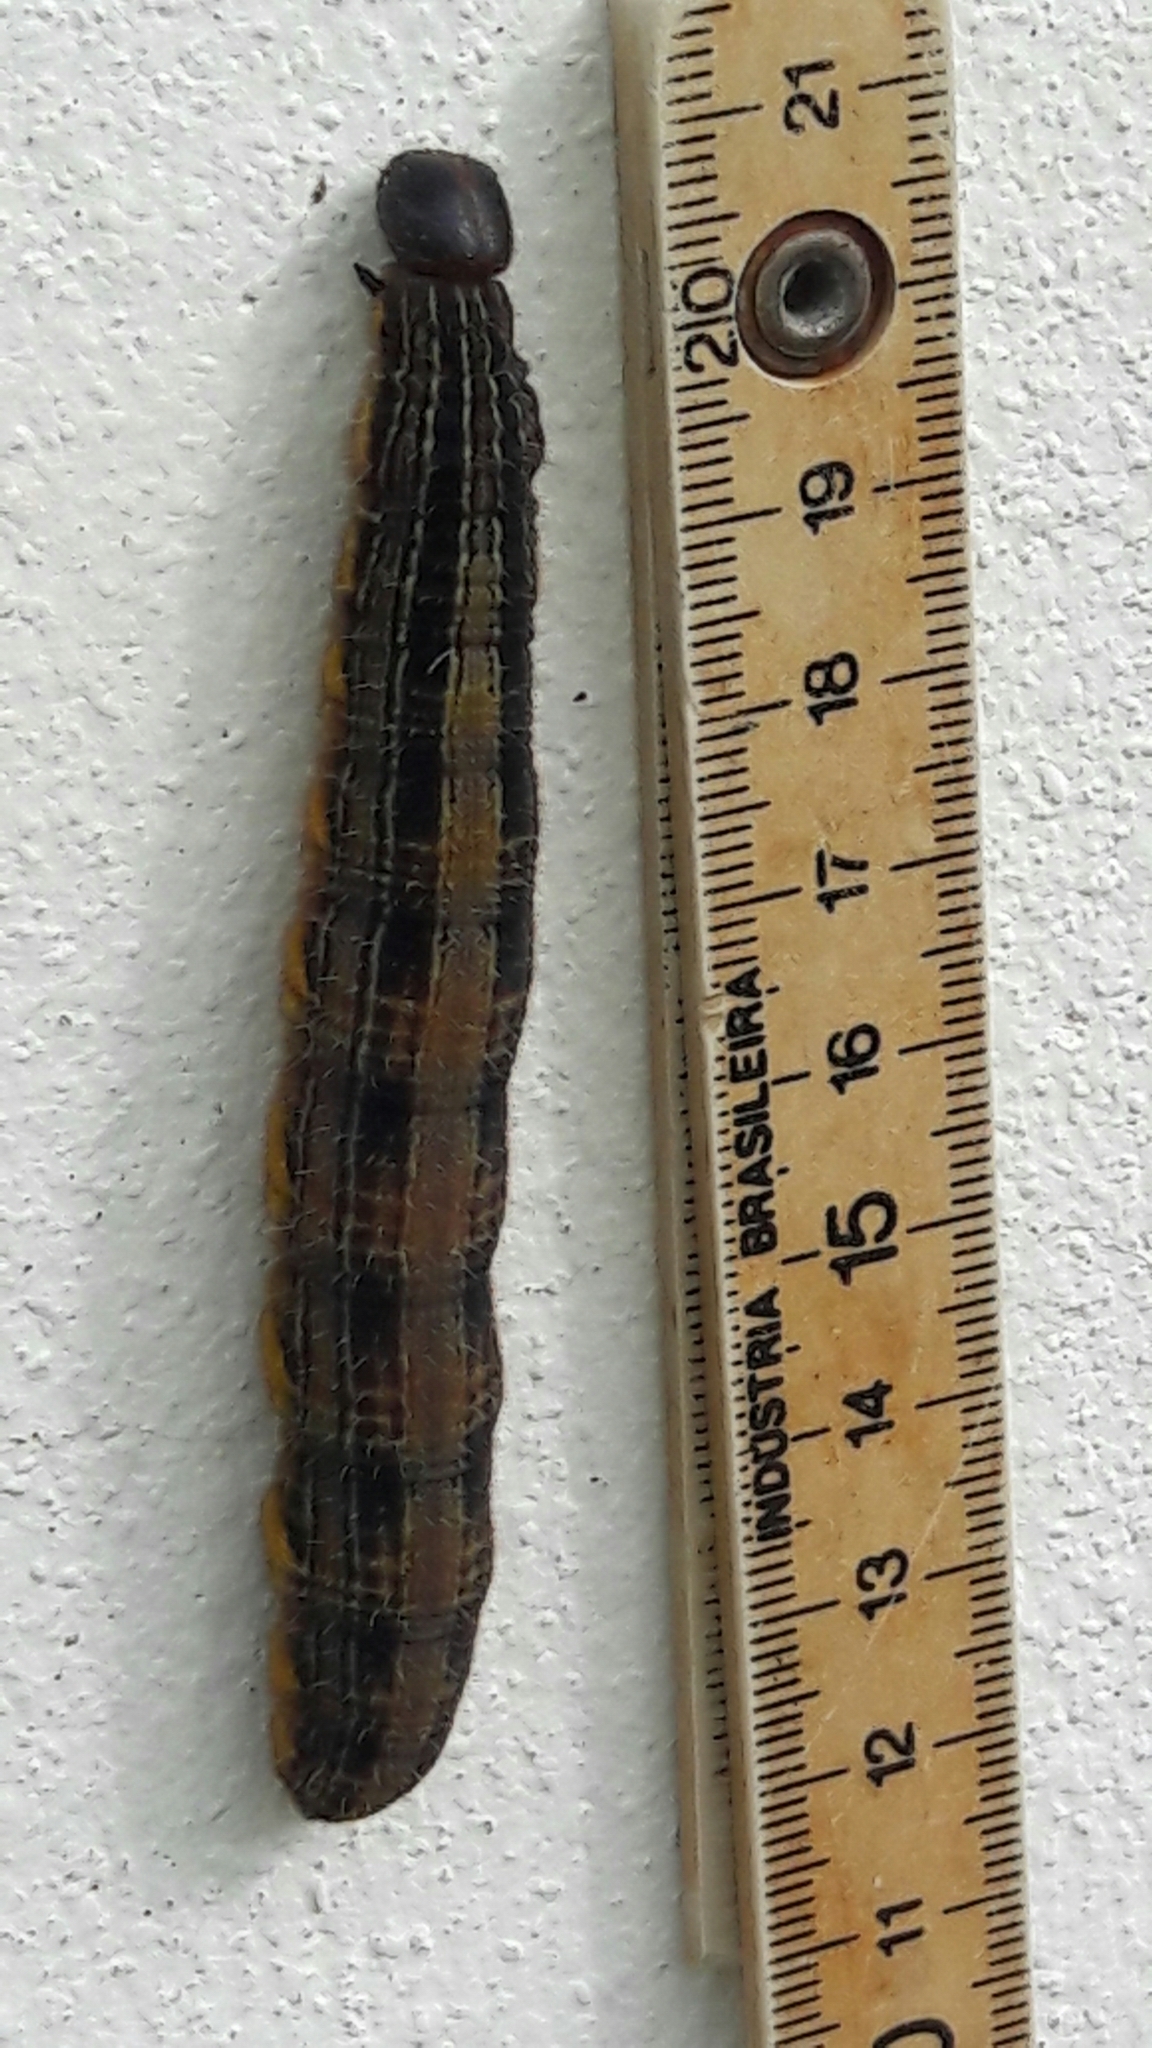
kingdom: Animalia
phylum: Arthropoda
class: Insecta
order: Lepidoptera
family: Nymphalidae
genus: Brassolis
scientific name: Brassolis sophorae
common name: Coconut caterpillar
